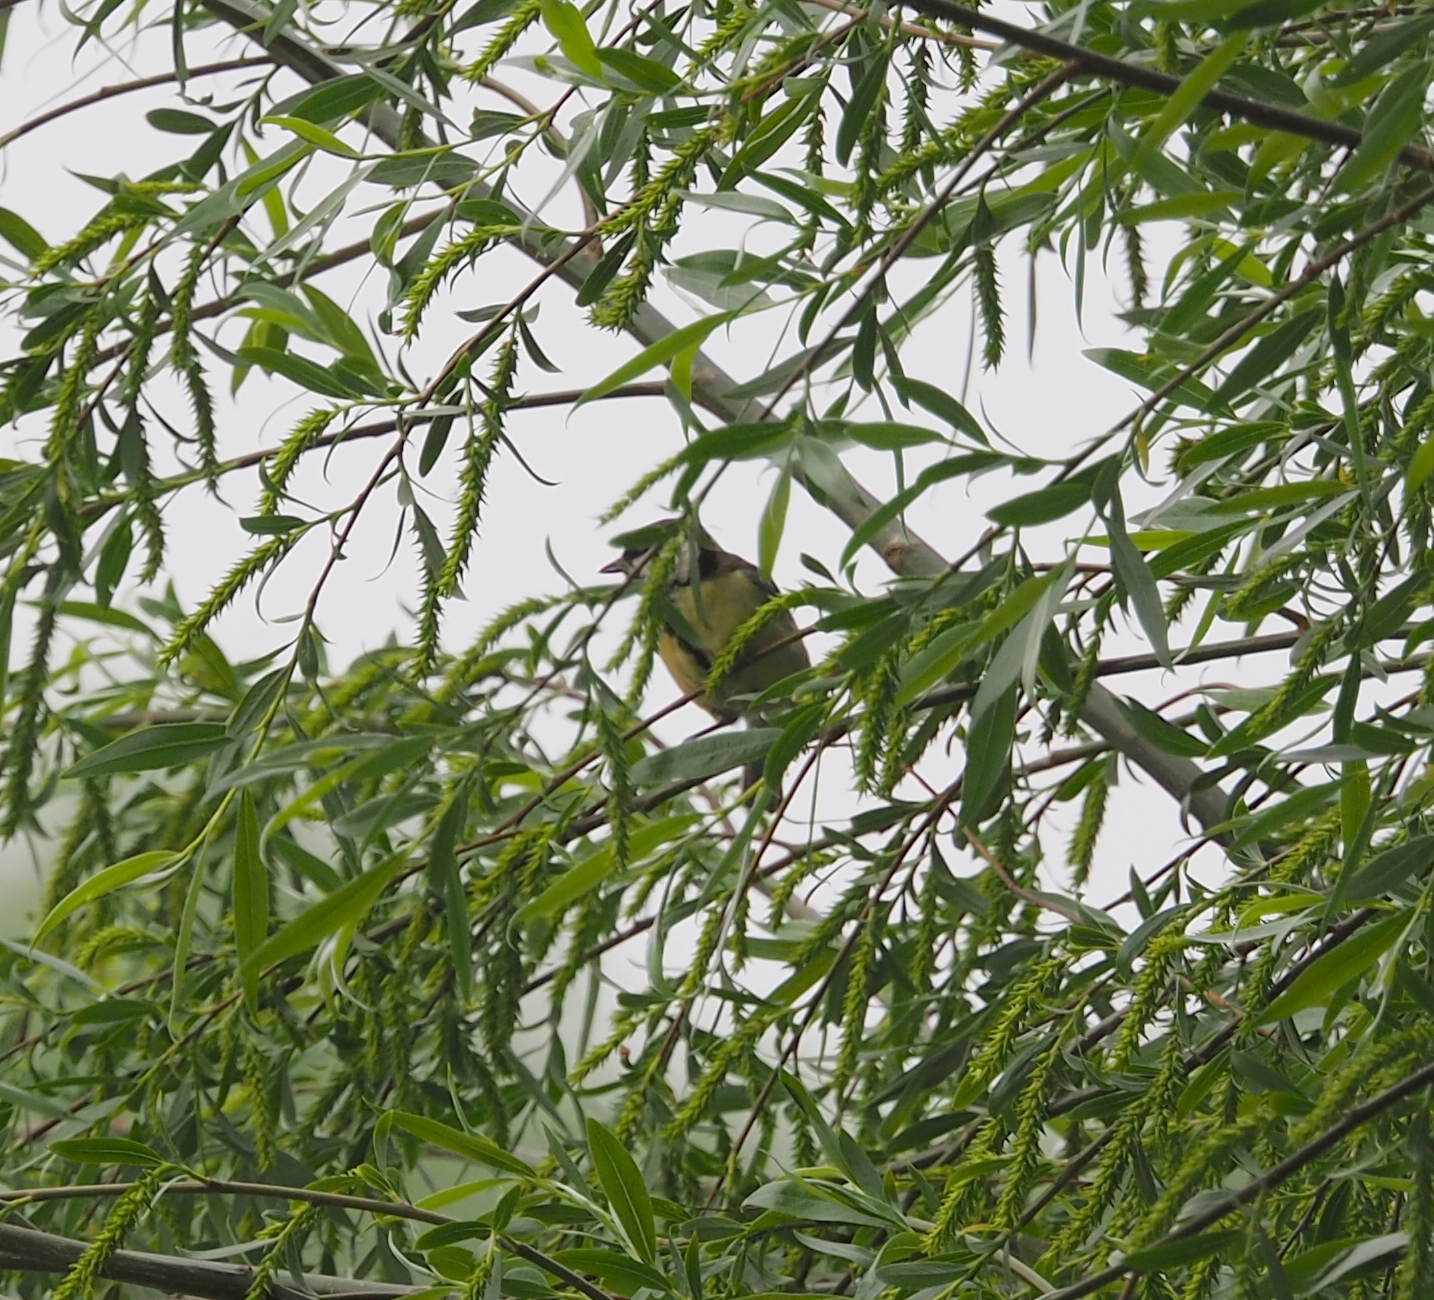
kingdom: Animalia
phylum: Chordata
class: Aves
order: Passeriformes
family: Paridae
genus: Parus
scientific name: Parus major
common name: Great tit
